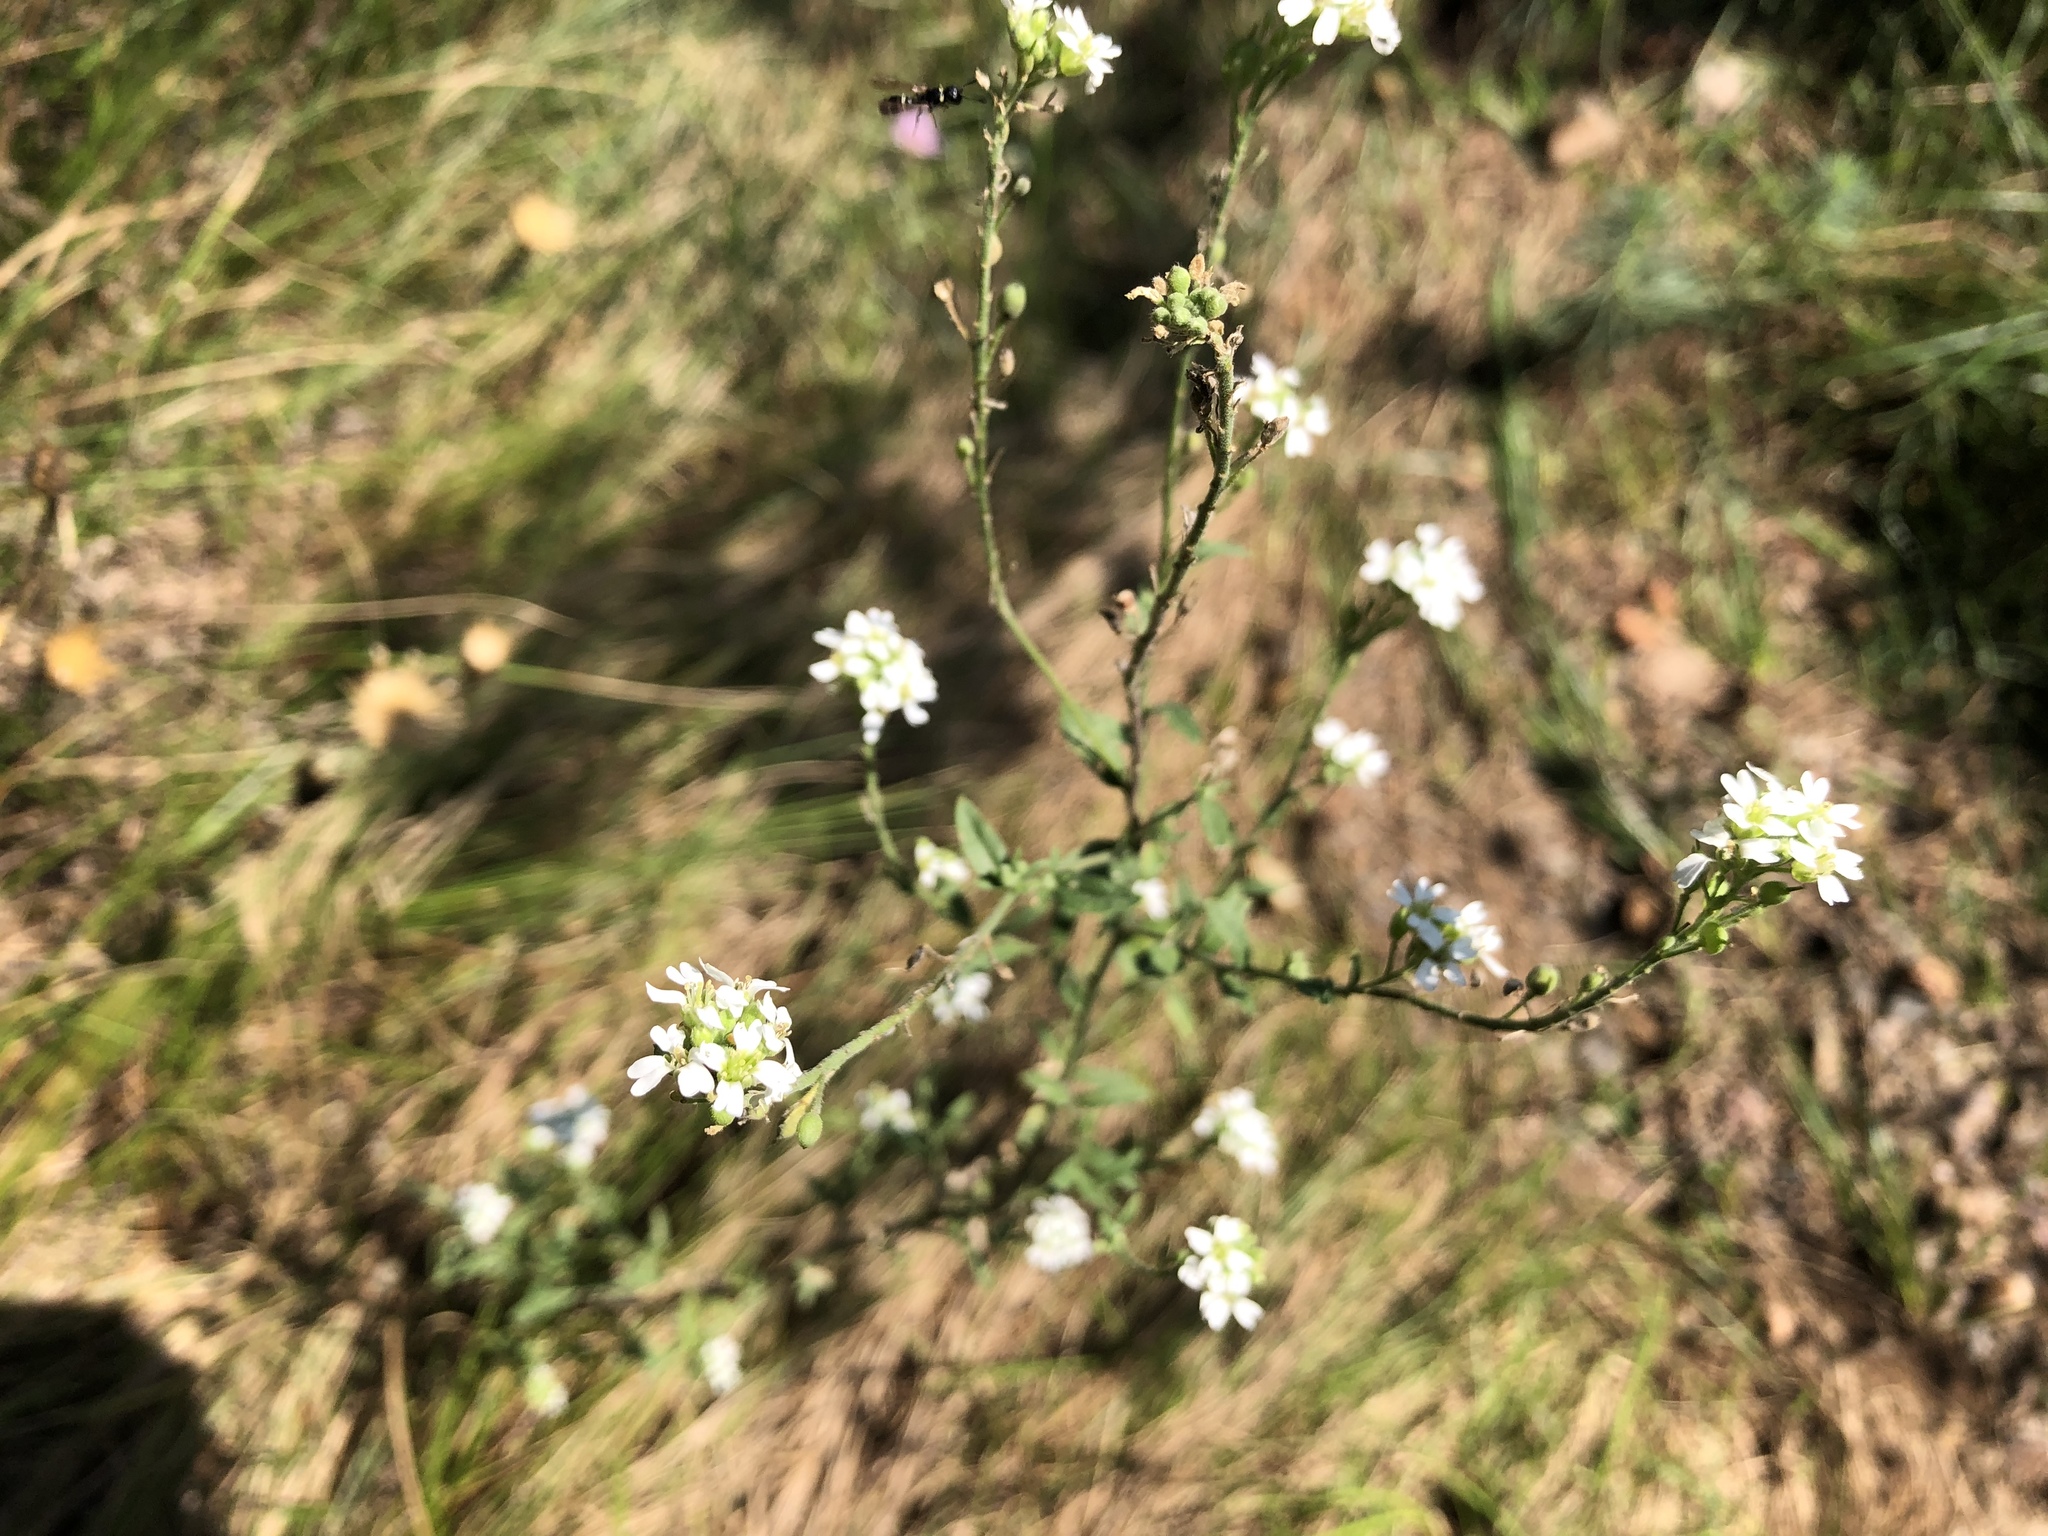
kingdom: Plantae
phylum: Tracheophyta
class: Magnoliopsida
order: Brassicales
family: Brassicaceae
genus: Berteroa
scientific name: Berteroa incana
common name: Hoary alison
